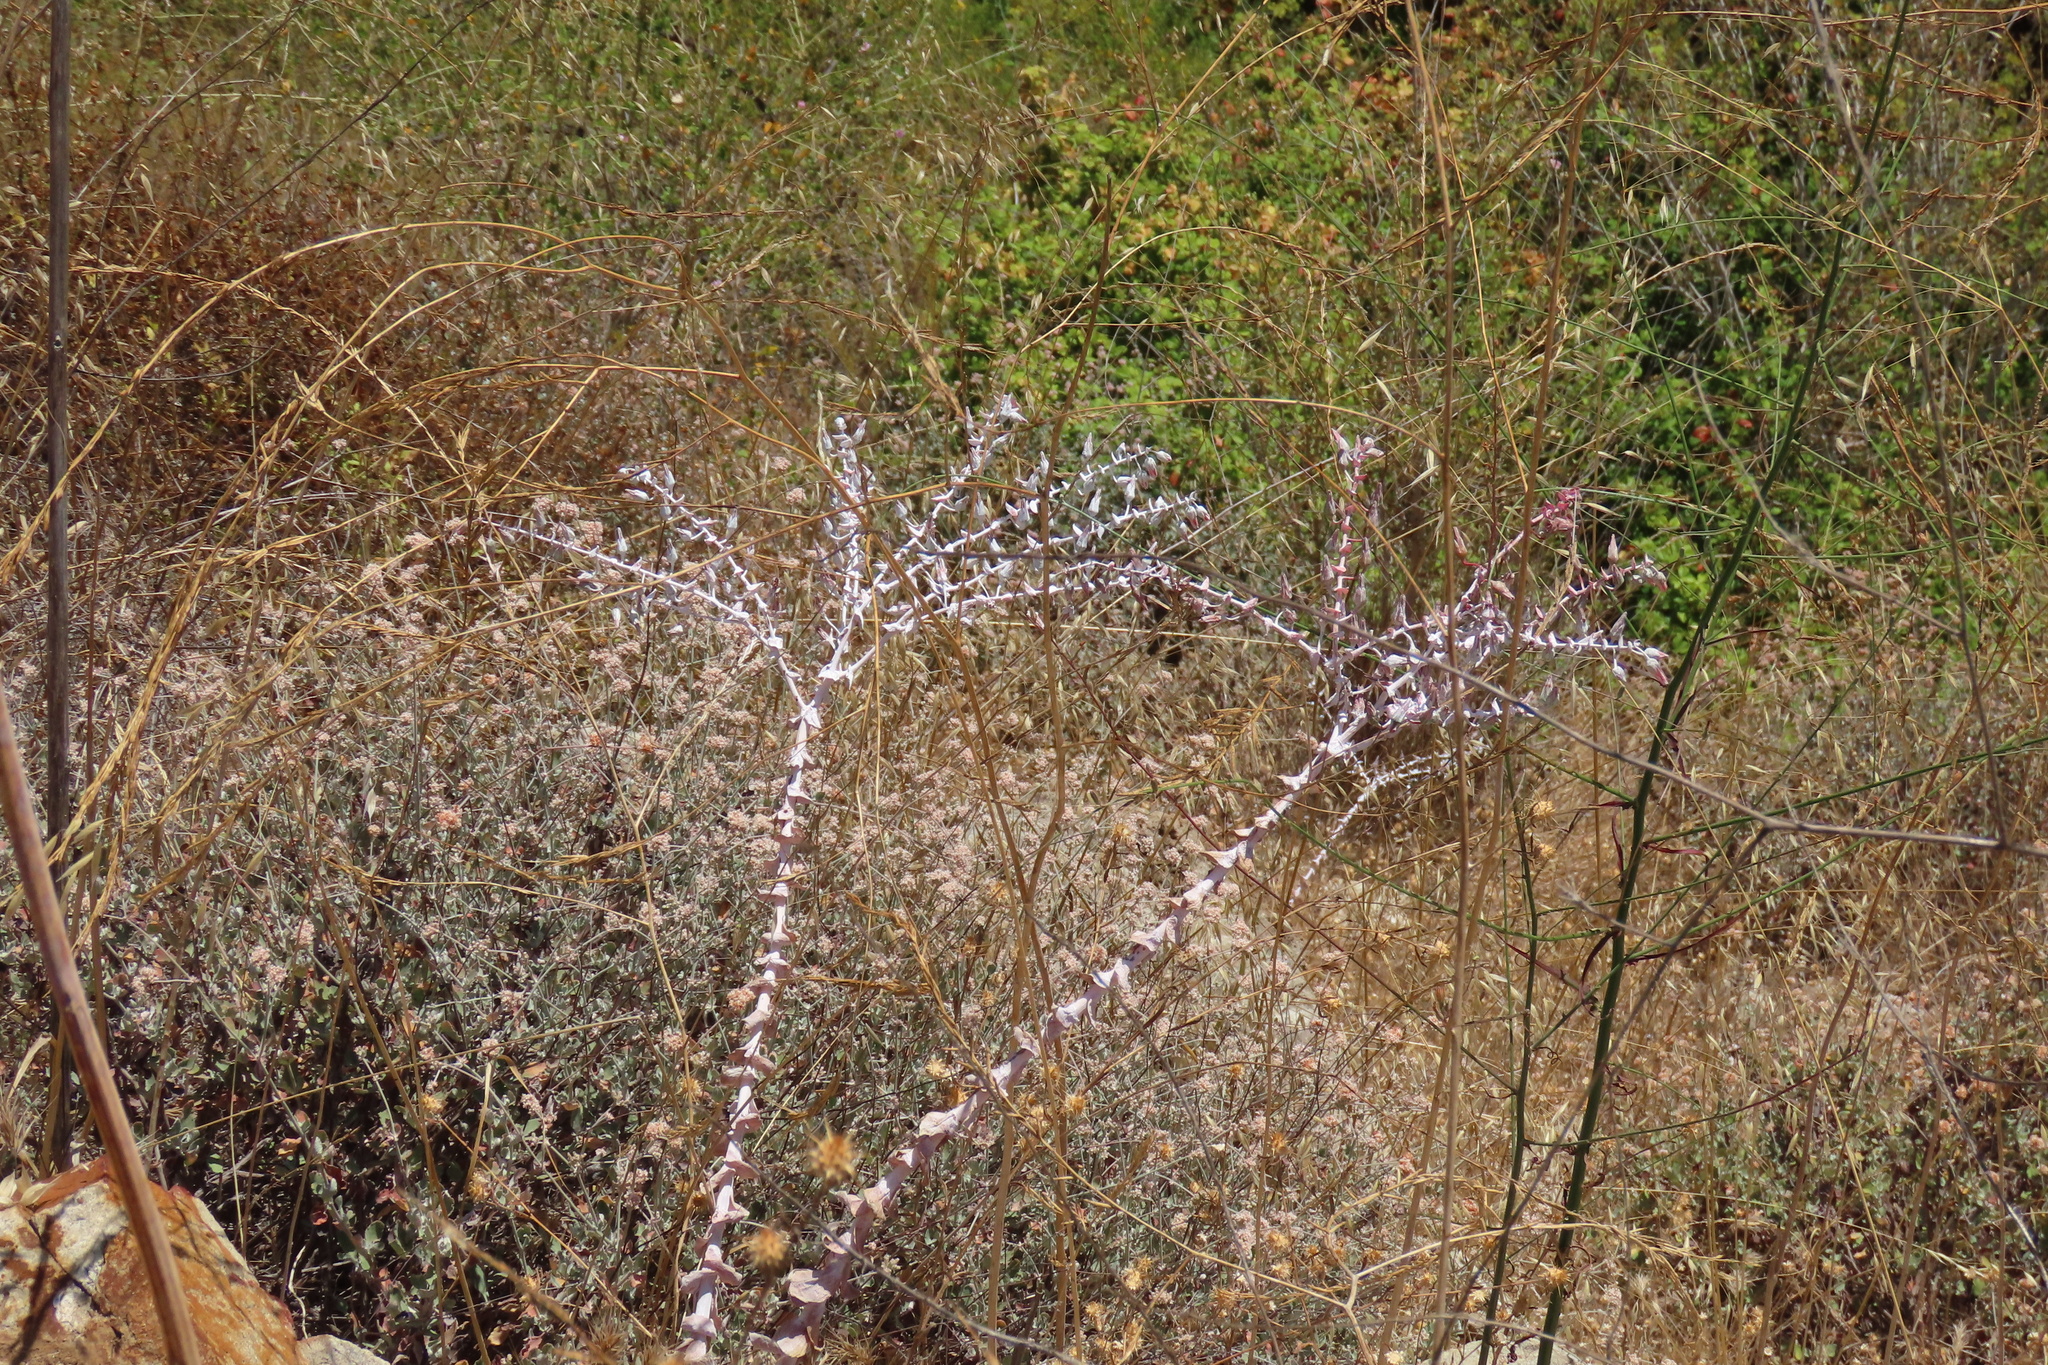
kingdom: Plantae
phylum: Tracheophyta
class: Magnoliopsida
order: Saxifragales
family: Crassulaceae
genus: Dudleya
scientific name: Dudleya pulverulenta
